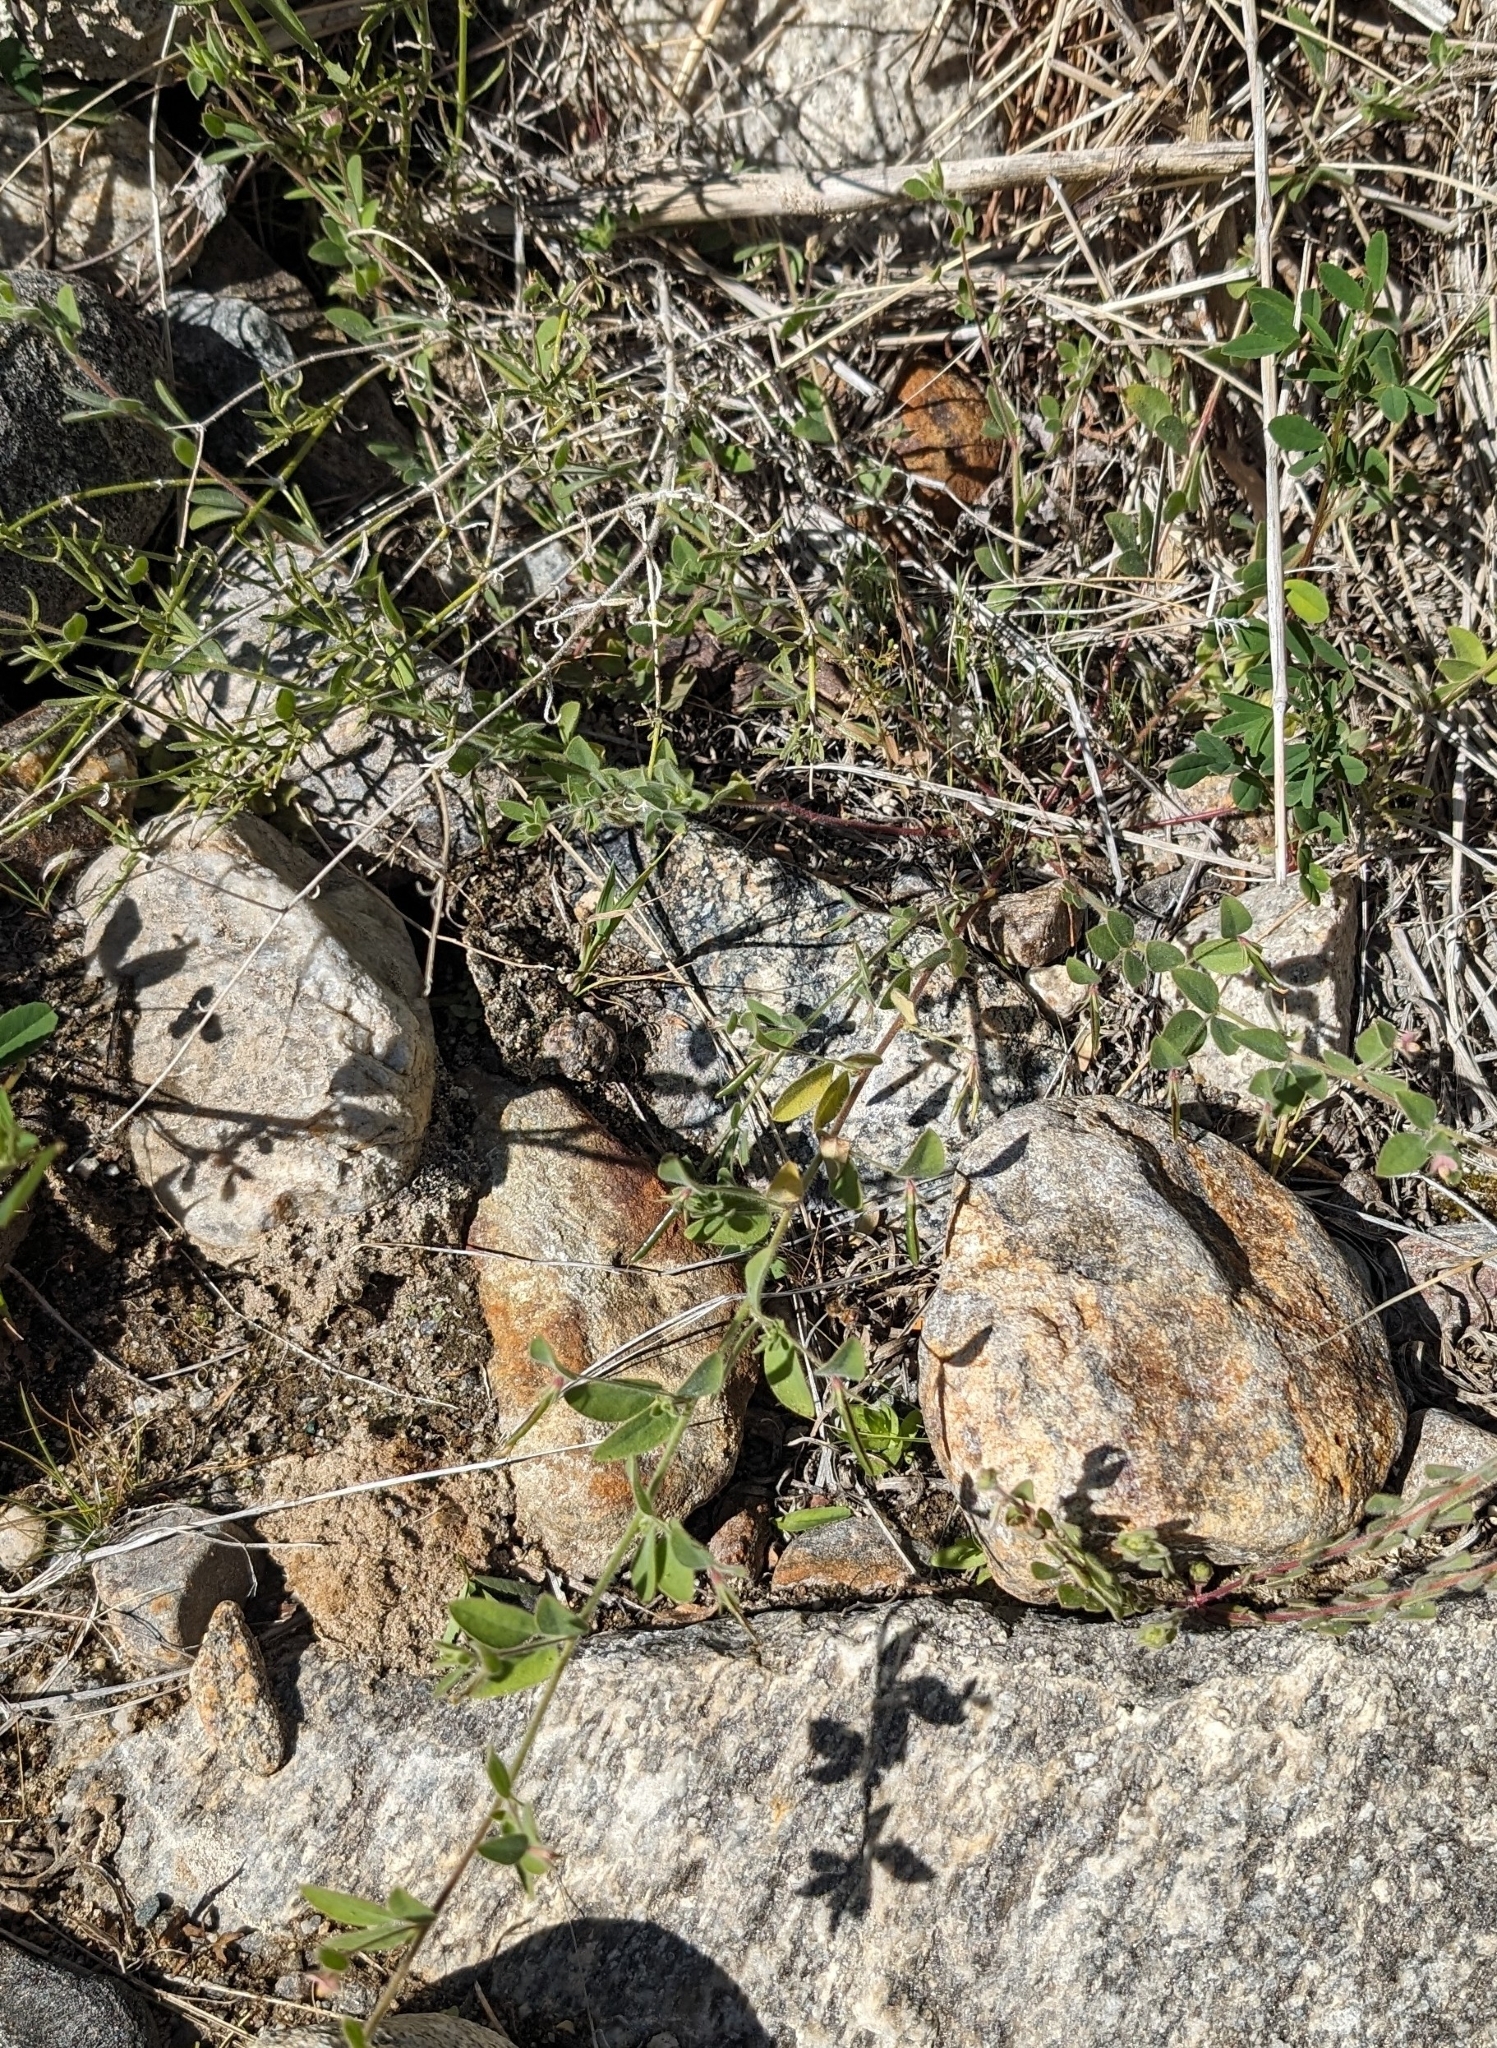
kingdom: Plantae
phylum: Tracheophyta
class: Magnoliopsida
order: Fabales
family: Fabaceae
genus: Acmispon
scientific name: Acmispon americanus
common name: American bird's-foot trefoil
